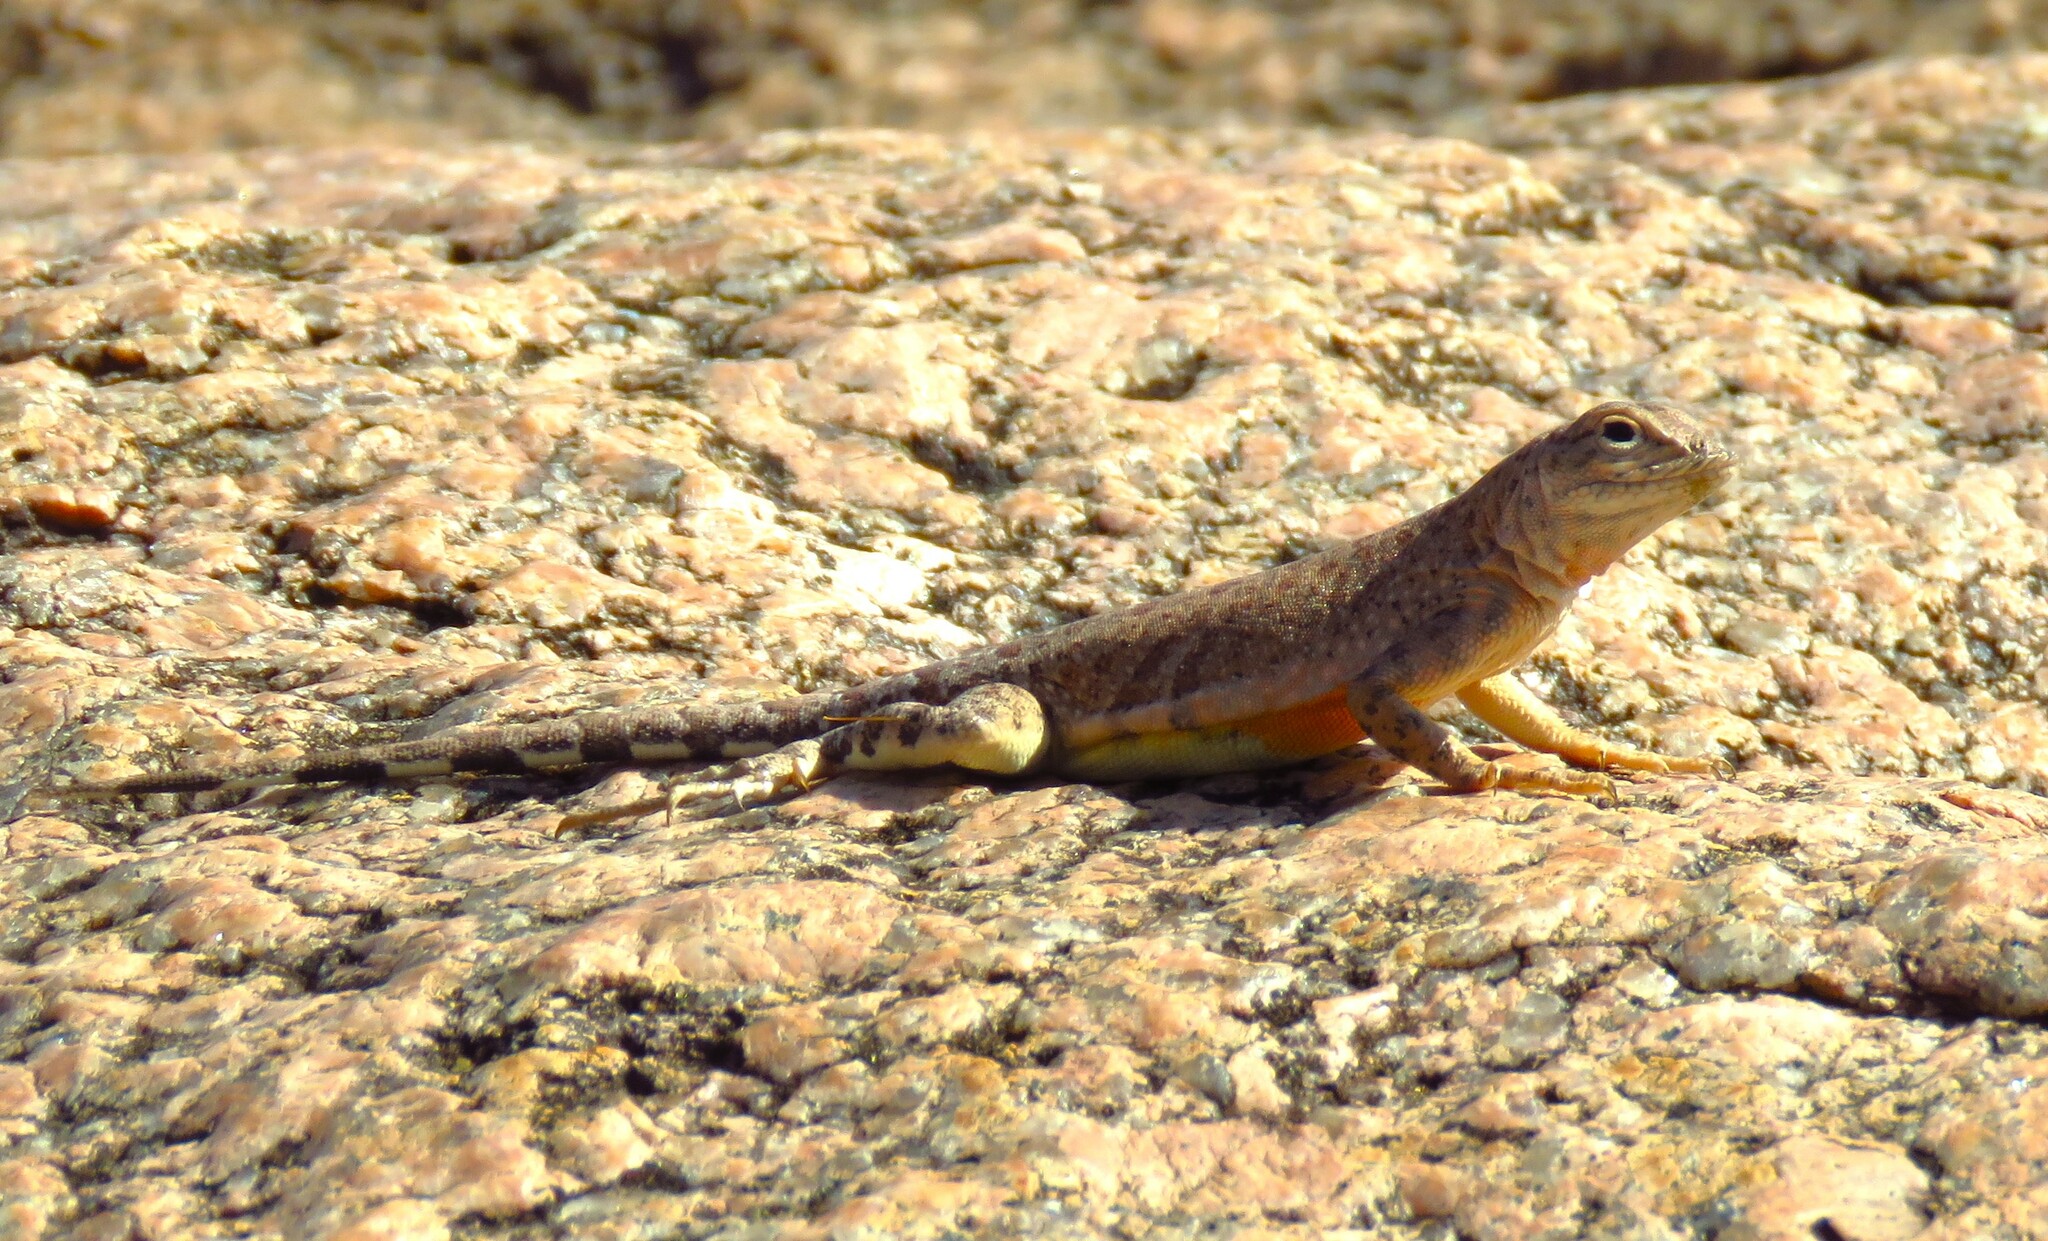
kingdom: Animalia
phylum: Chordata
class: Squamata
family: Phrynosomatidae
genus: Cophosaurus
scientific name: Cophosaurus texanus
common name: Greater earless lizard
